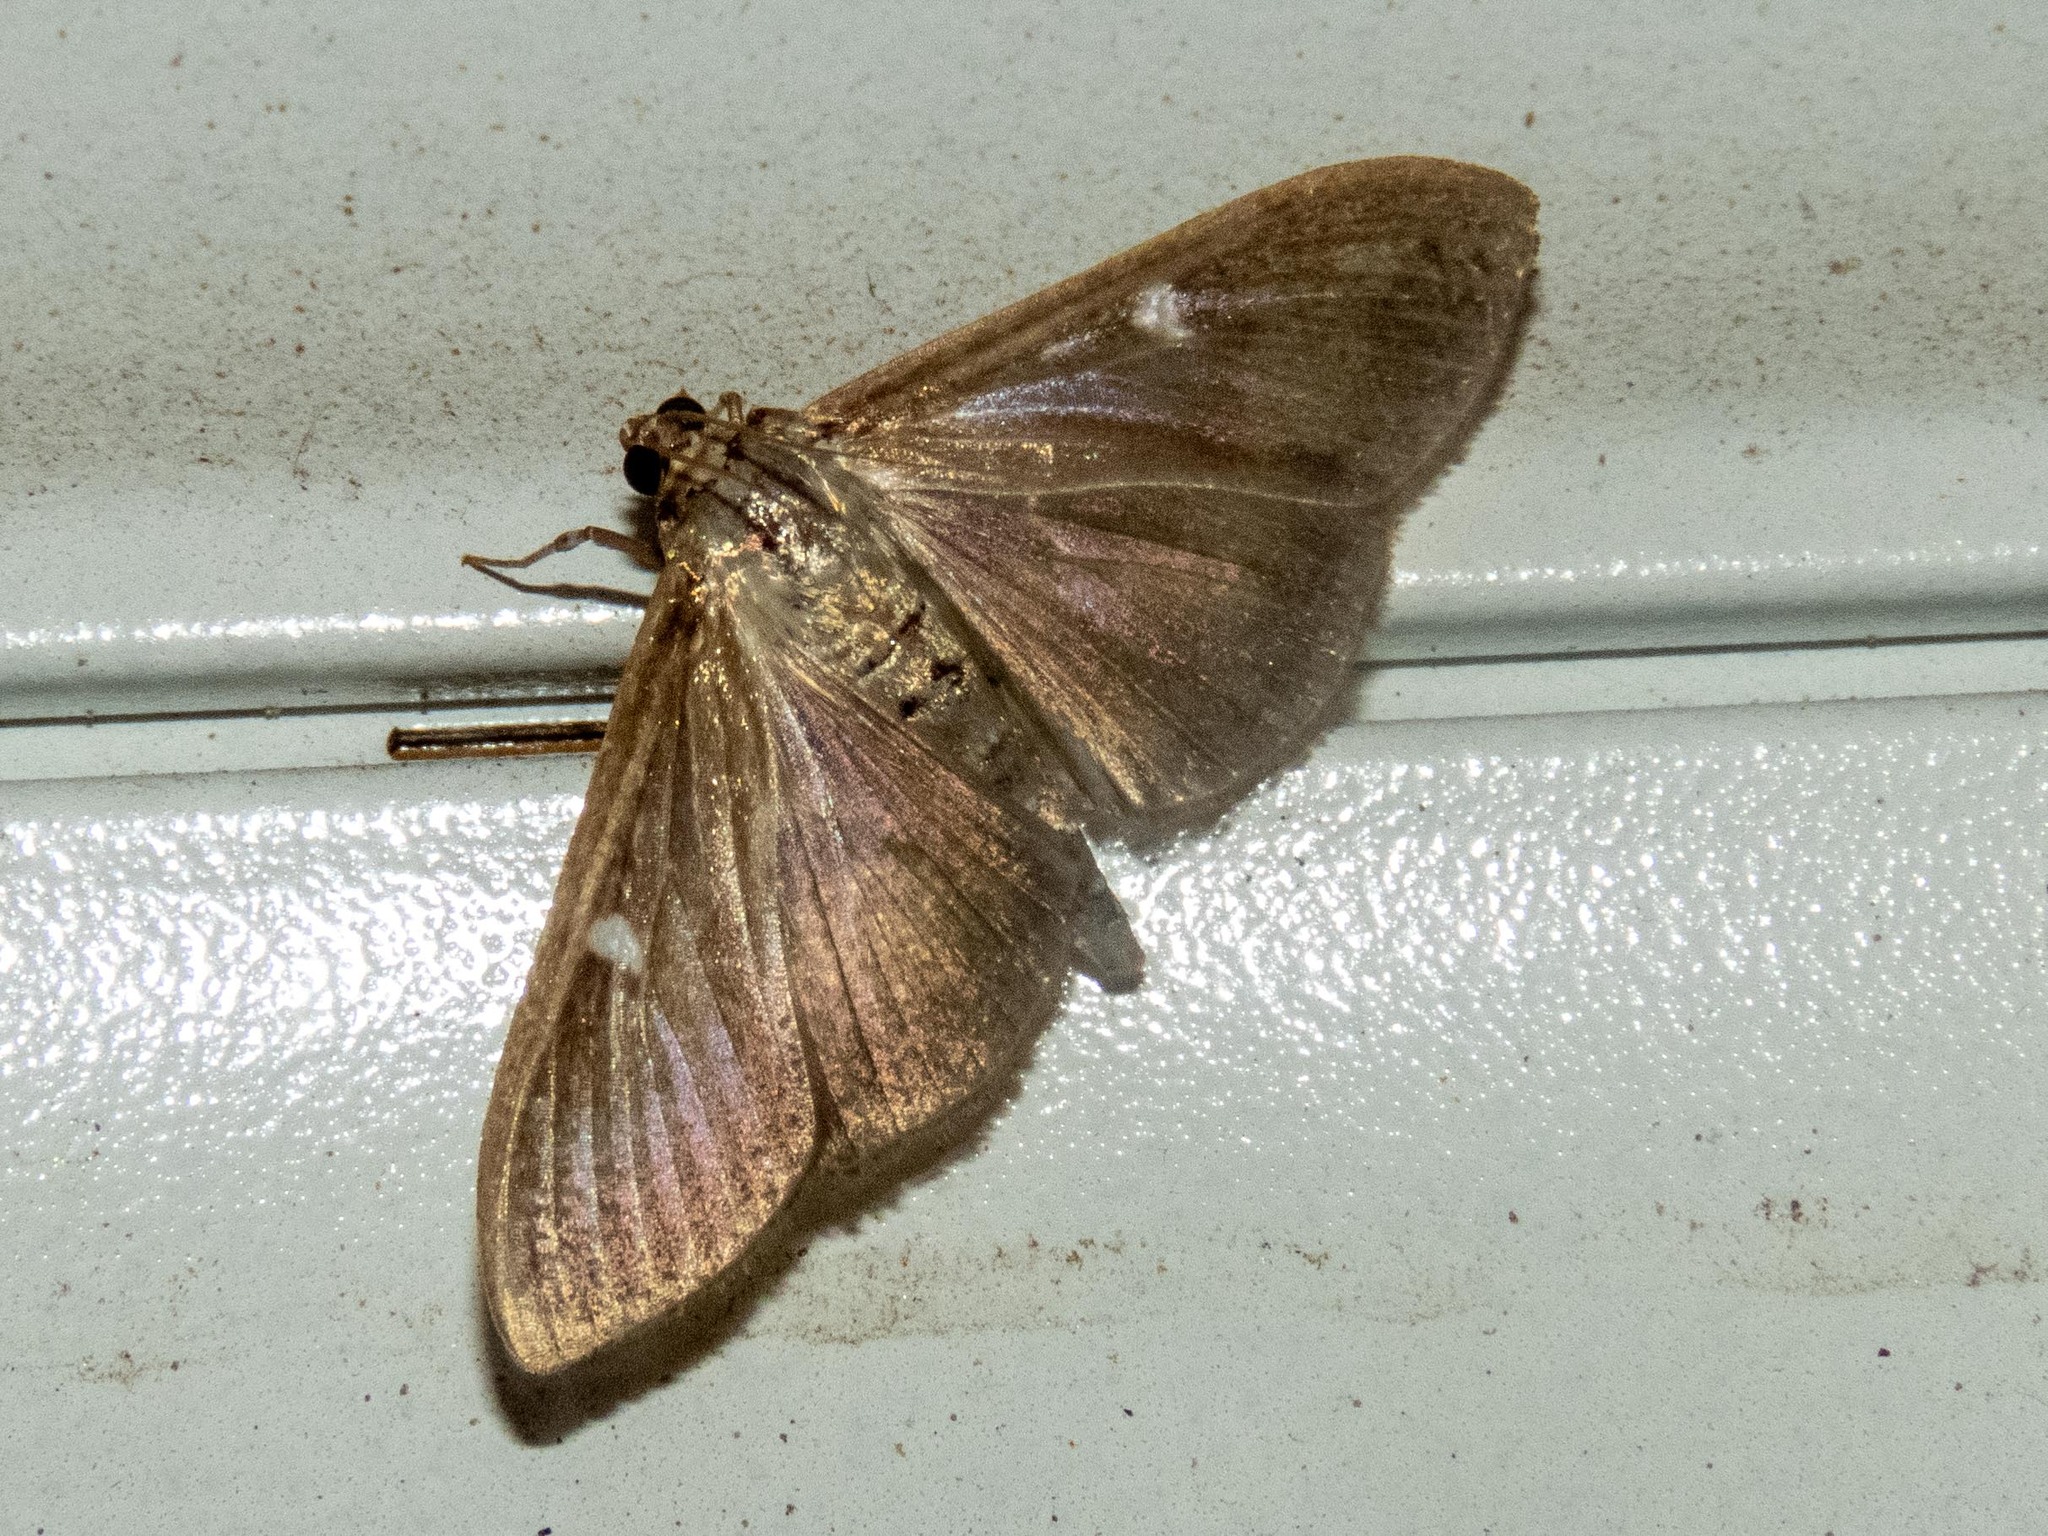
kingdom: Animalia
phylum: Arthropoda
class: Insecta
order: Lepidoptera
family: Crambidae
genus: Cydalima
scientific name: Cydalima perspectalis
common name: Box tree moth
